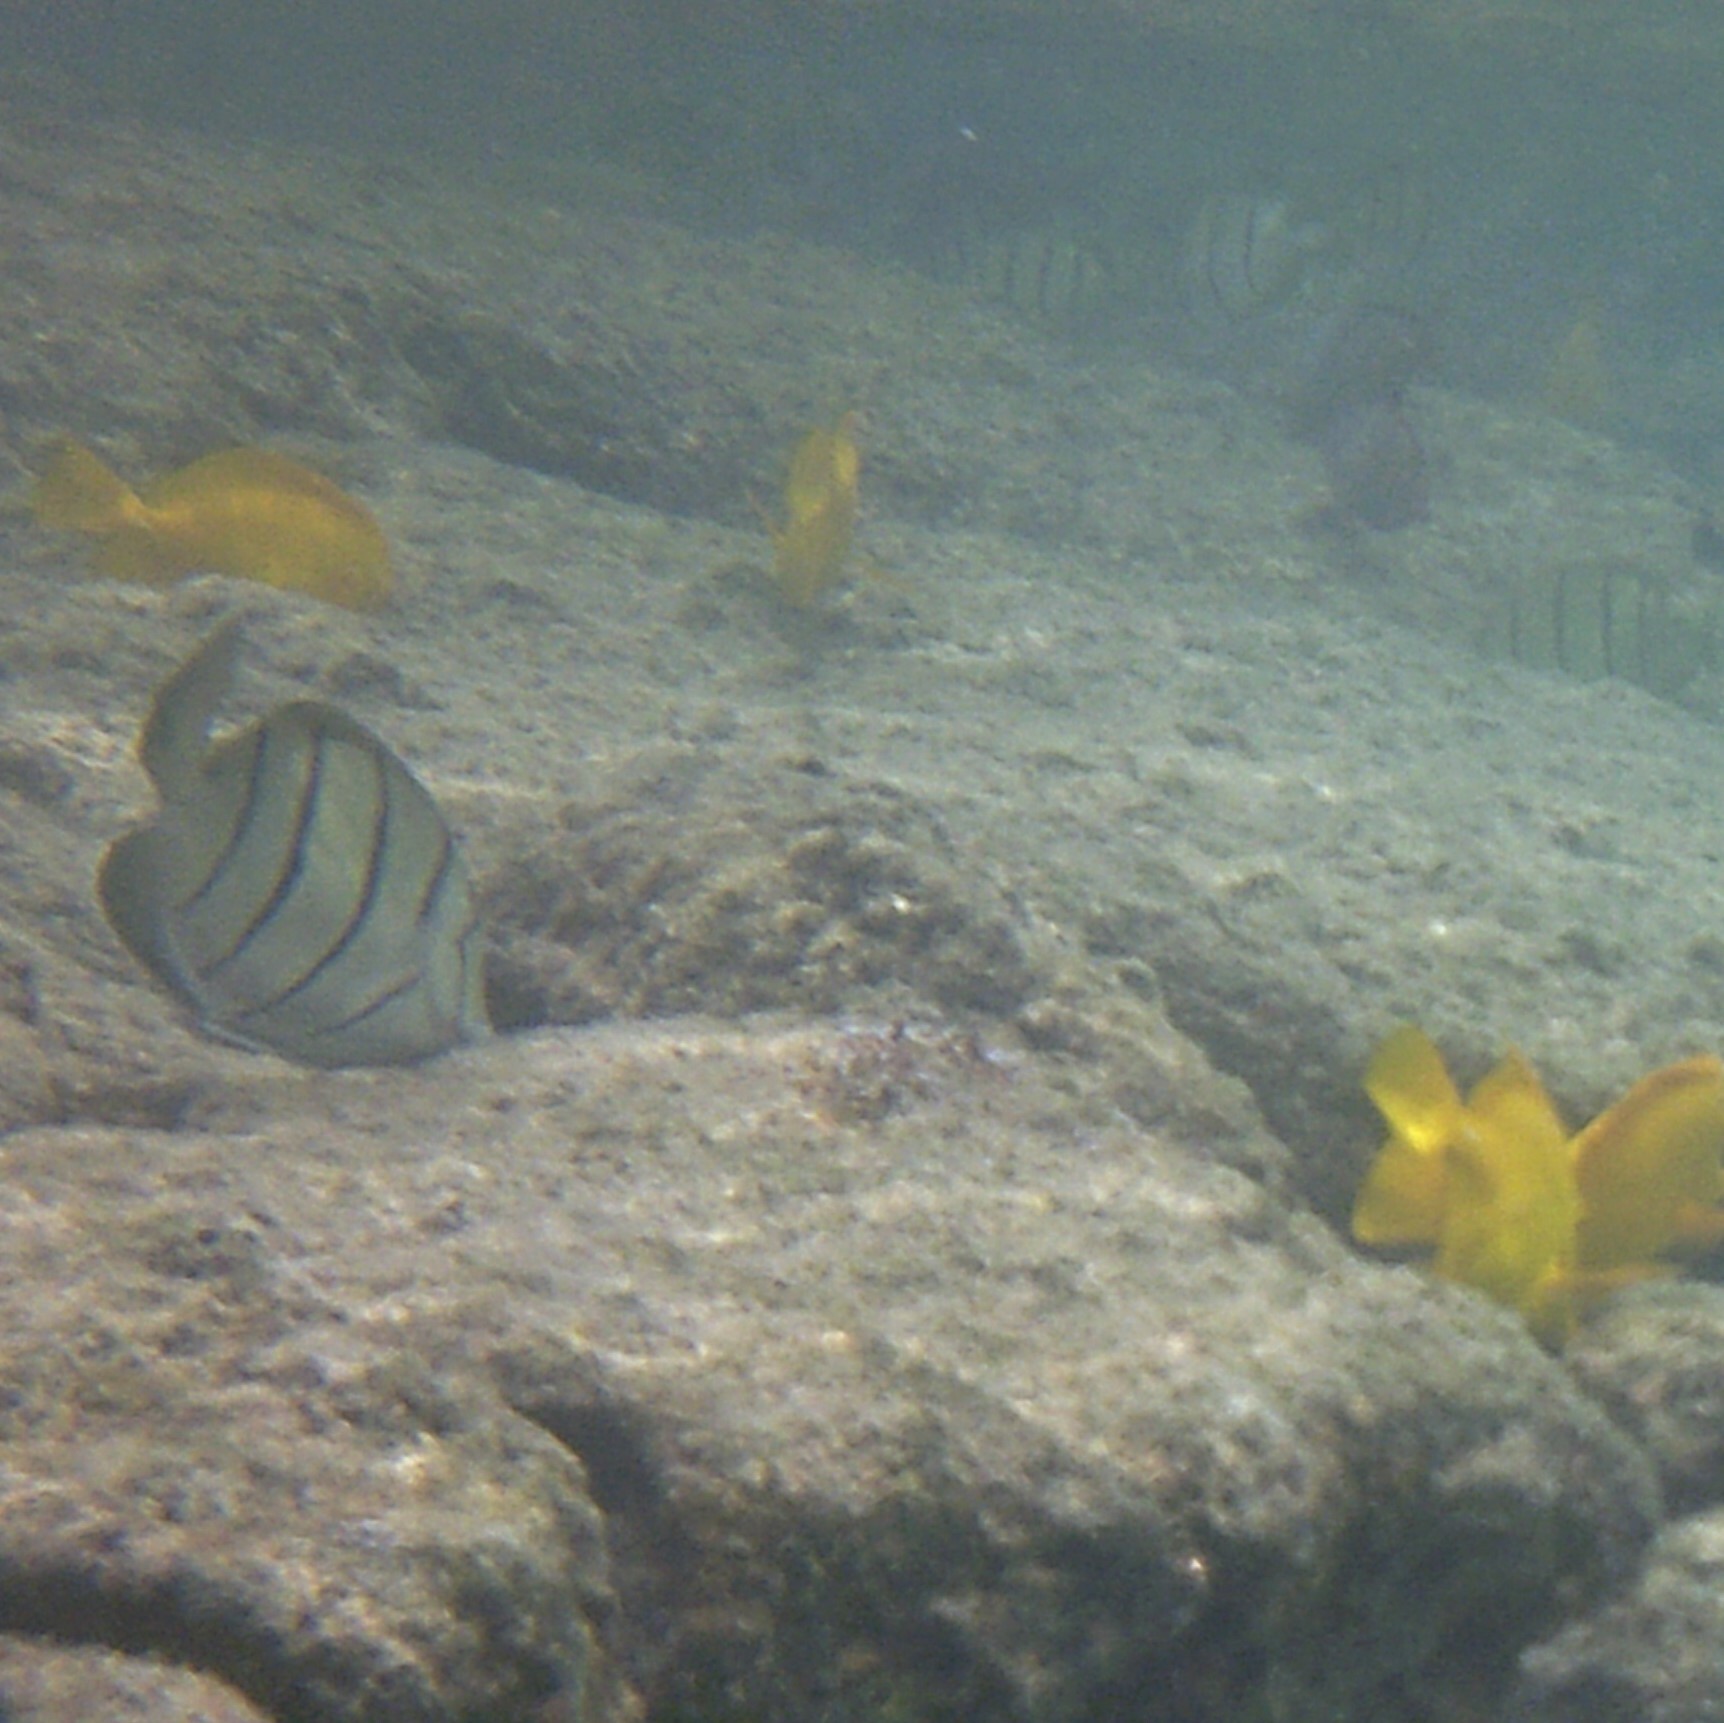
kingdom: Animalia
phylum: Chordata
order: Perciformes
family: Acanthuridae
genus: Acanthurus
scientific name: Acanthurus triostegus
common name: Convict surgeonfish
